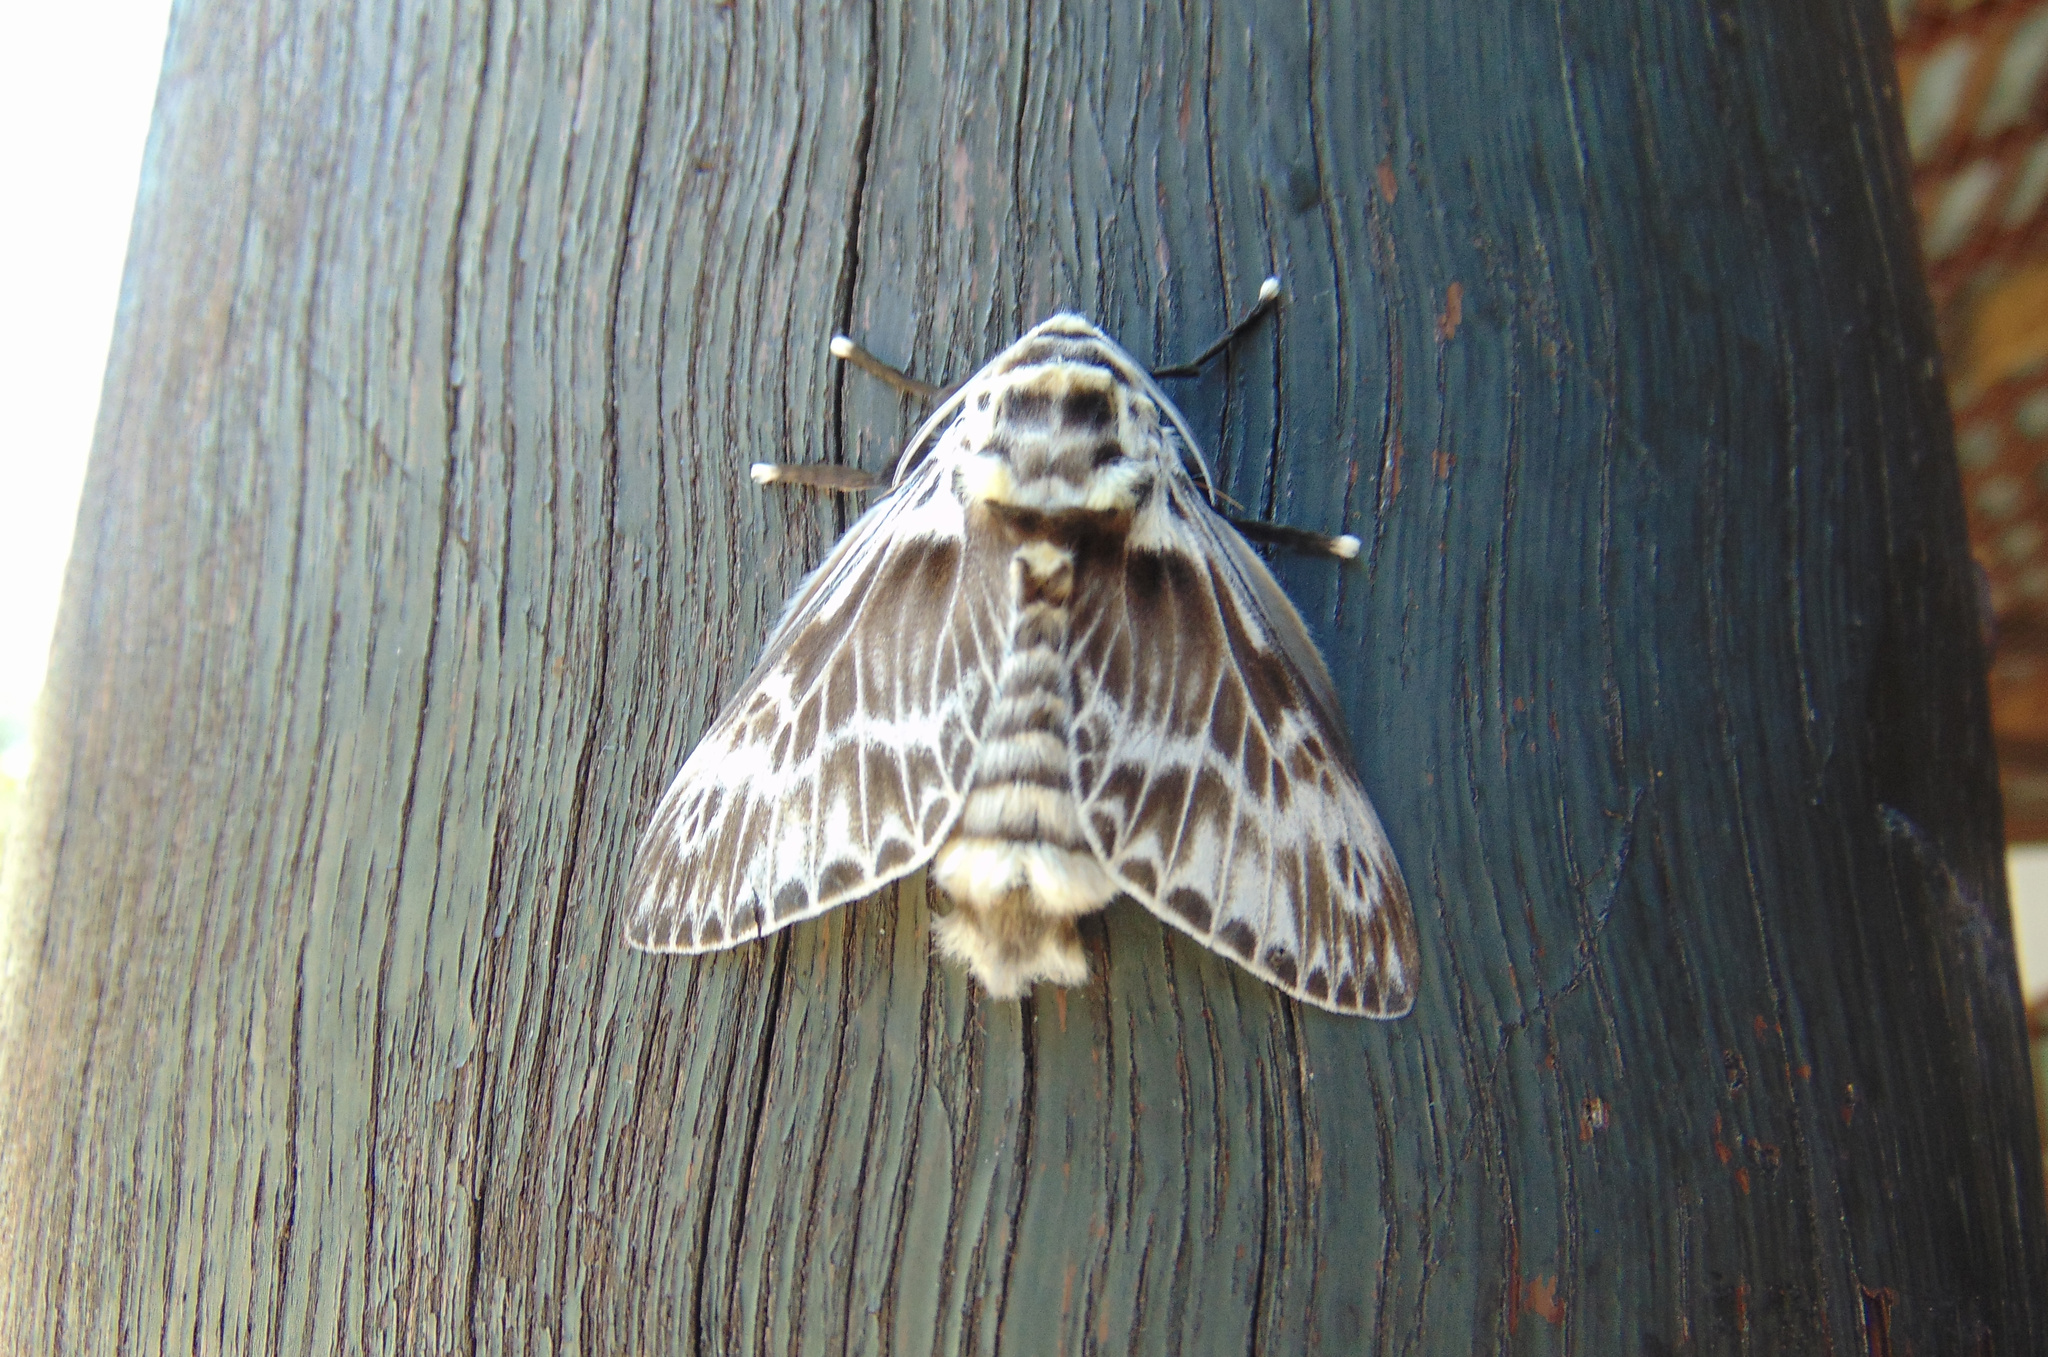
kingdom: Animalia
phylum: Arthropoda
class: Insecta
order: Lepidoptera
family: Megalopygidae
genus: Podalia
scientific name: Podalia orsilochus
